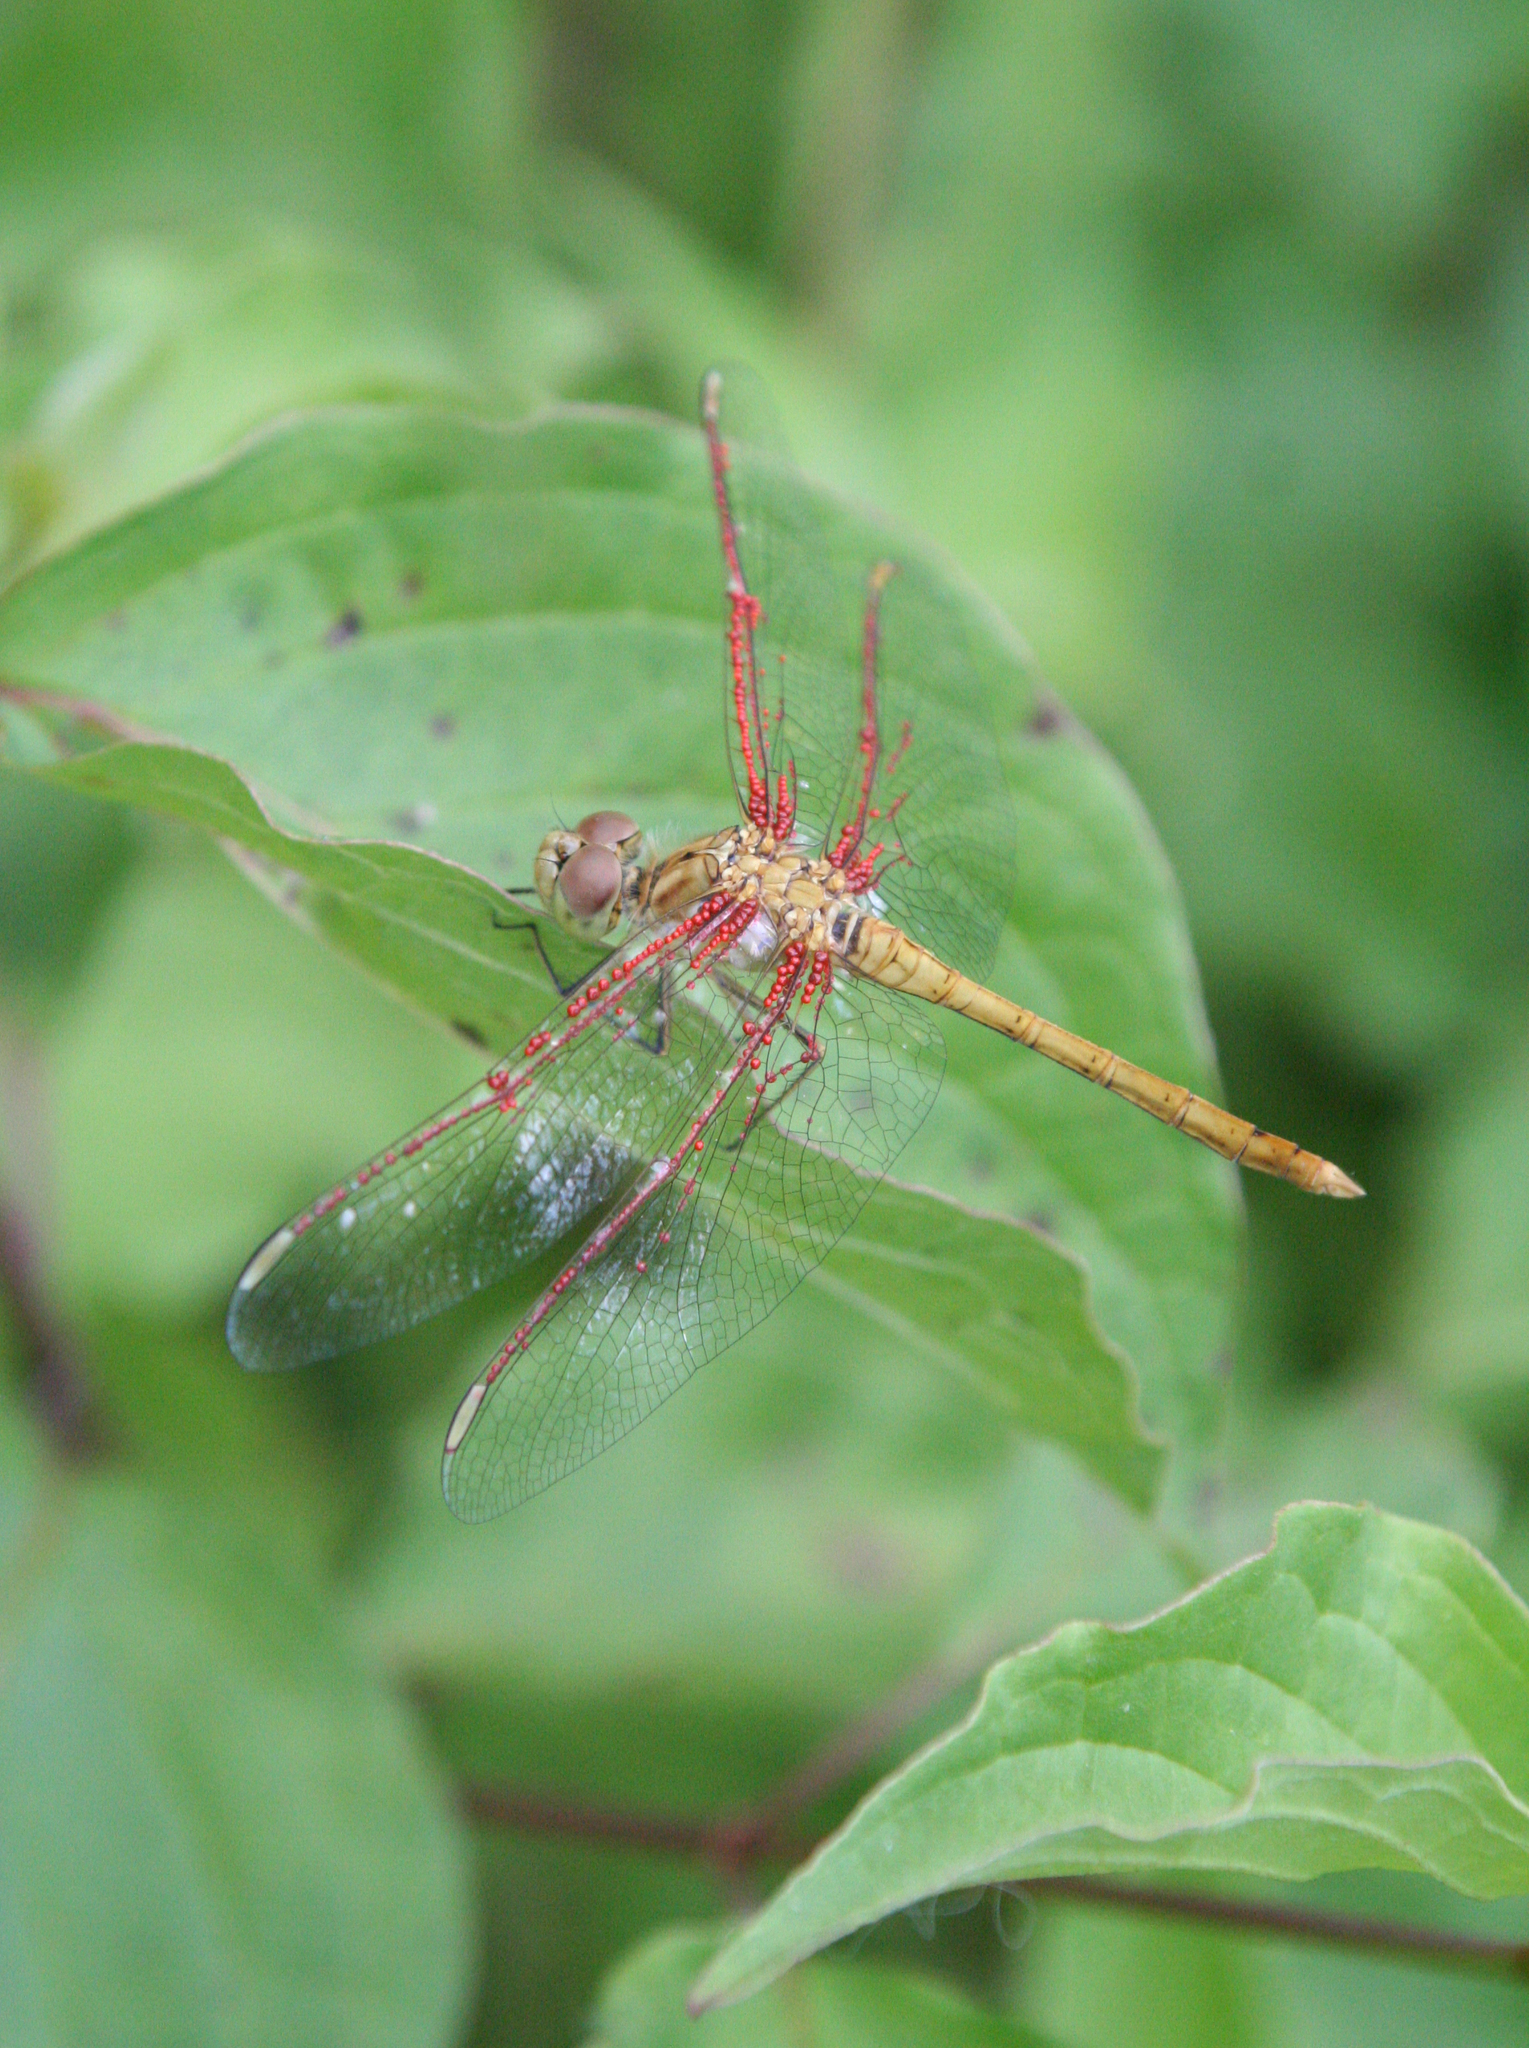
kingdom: Animalia
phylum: Arthropoda
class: Insecta
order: Odonata
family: Libellulidae
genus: Sympetrum
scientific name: Sympetrum meridionale
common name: Southern darter
